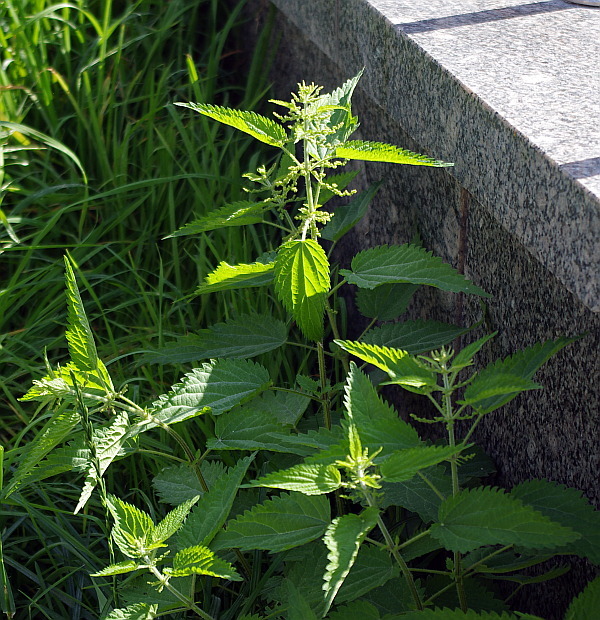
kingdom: Plantae
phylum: Tracheophyta
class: Magnoliopsida
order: Rosales
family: Urticaceae
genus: Urtica
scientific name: Urtica dioica
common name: Common nettle
